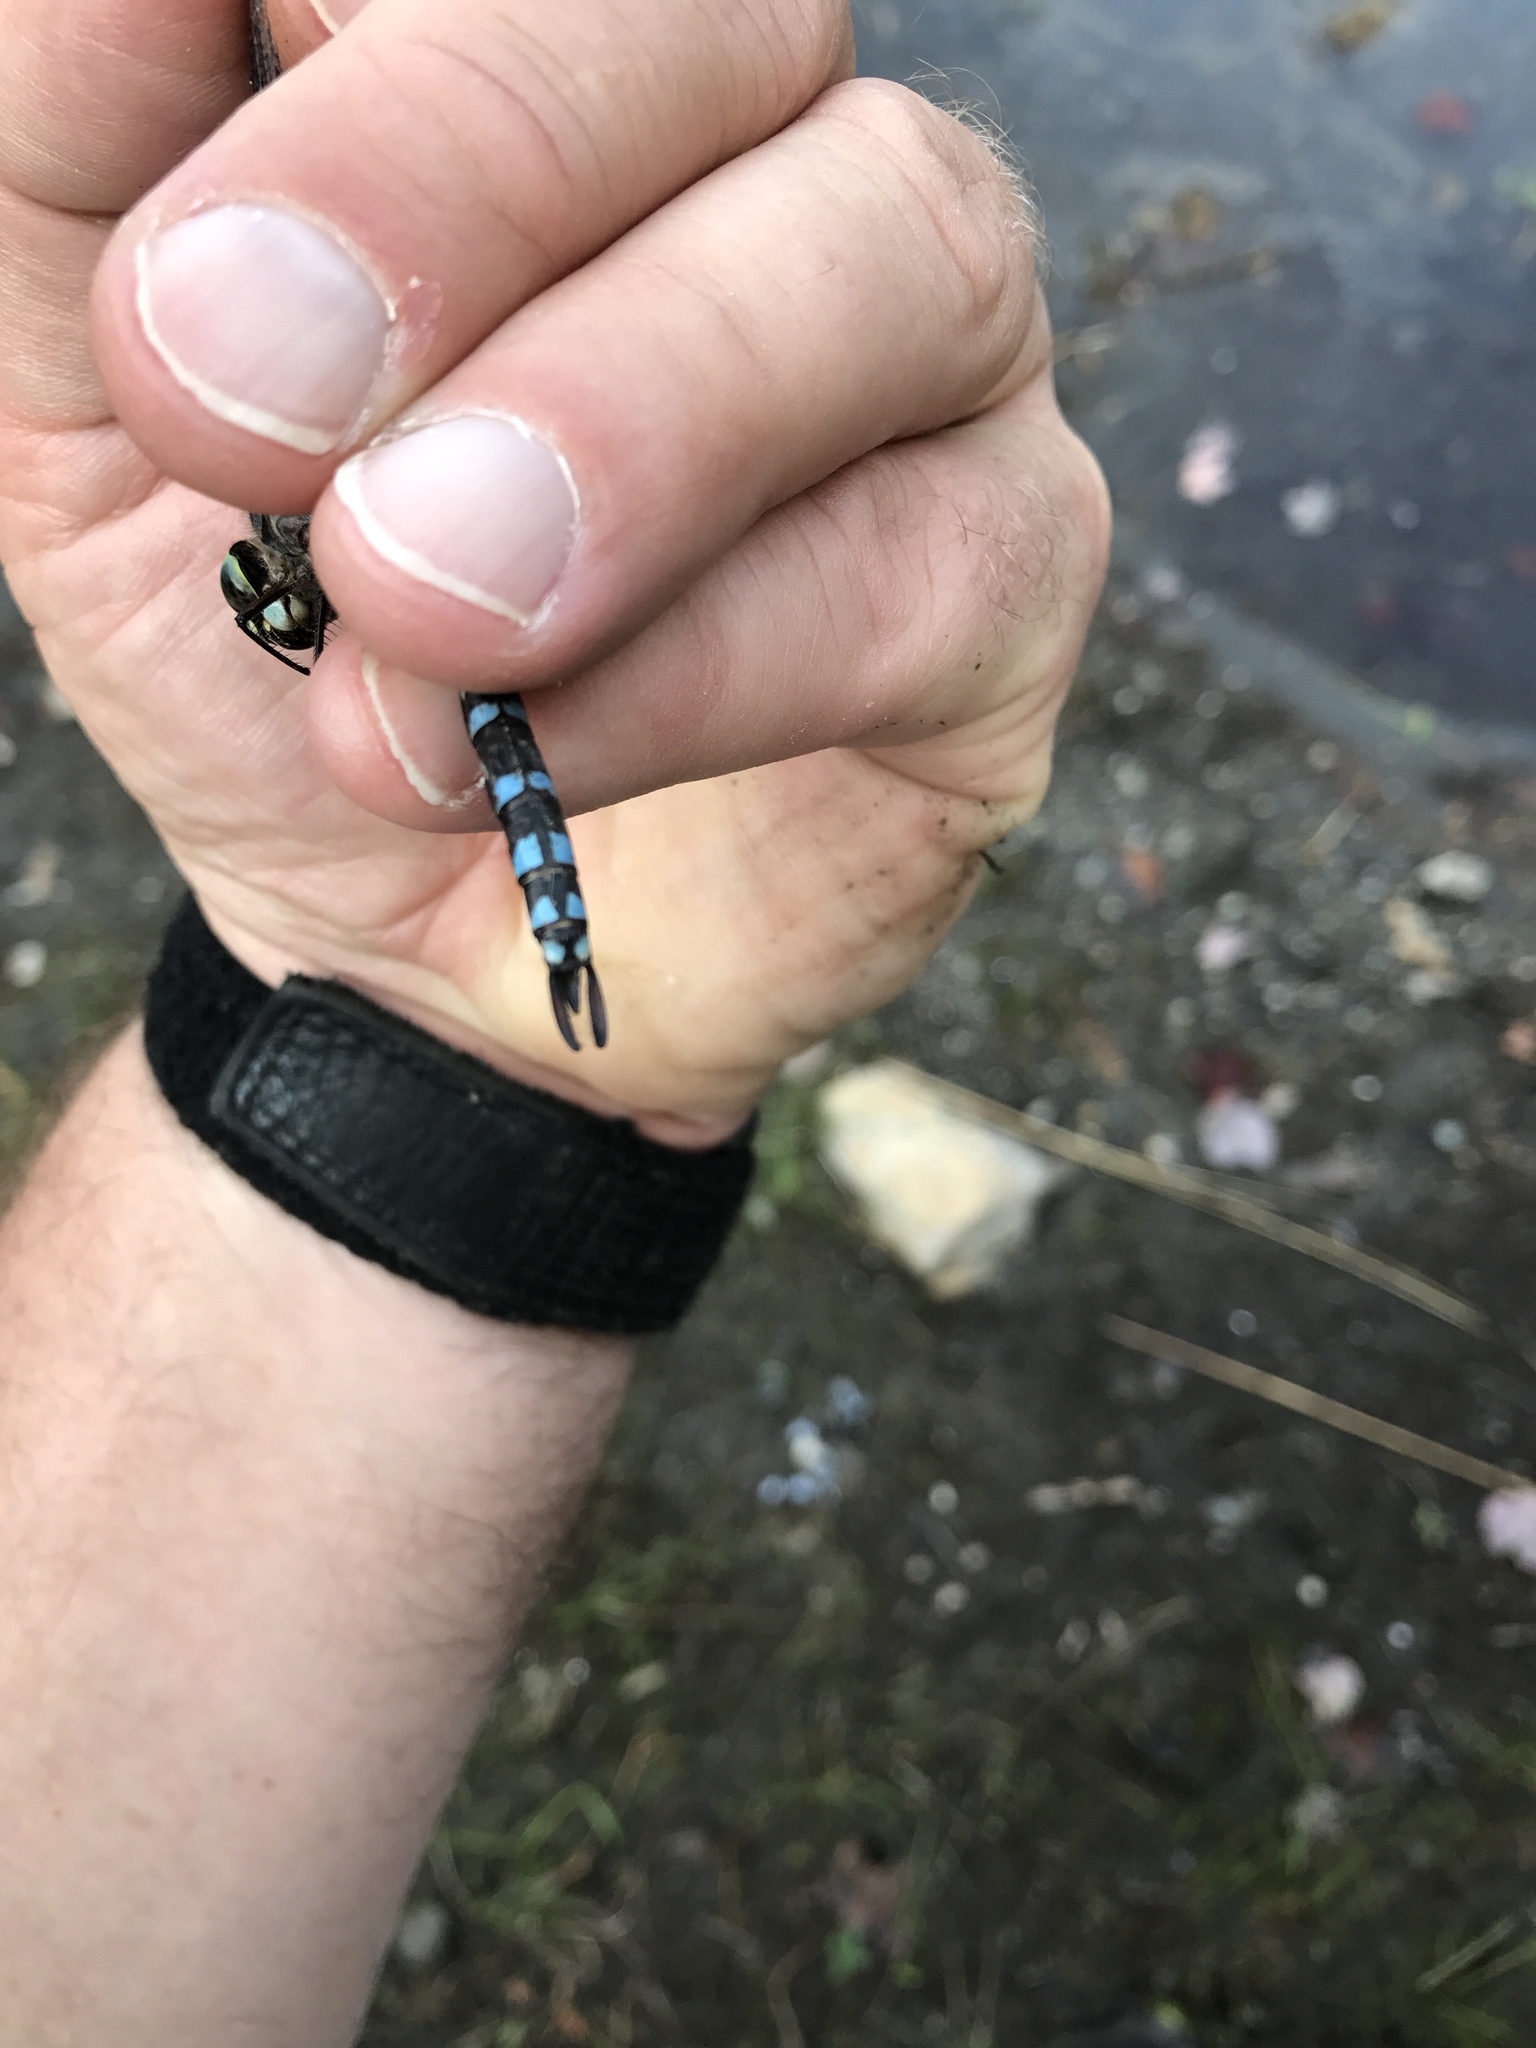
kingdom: Animalia
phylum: Arthropoda
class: Insecta
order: Odonata
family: Aeshnidae
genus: Aeshna
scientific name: Aeshna eremita
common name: Lake darner
